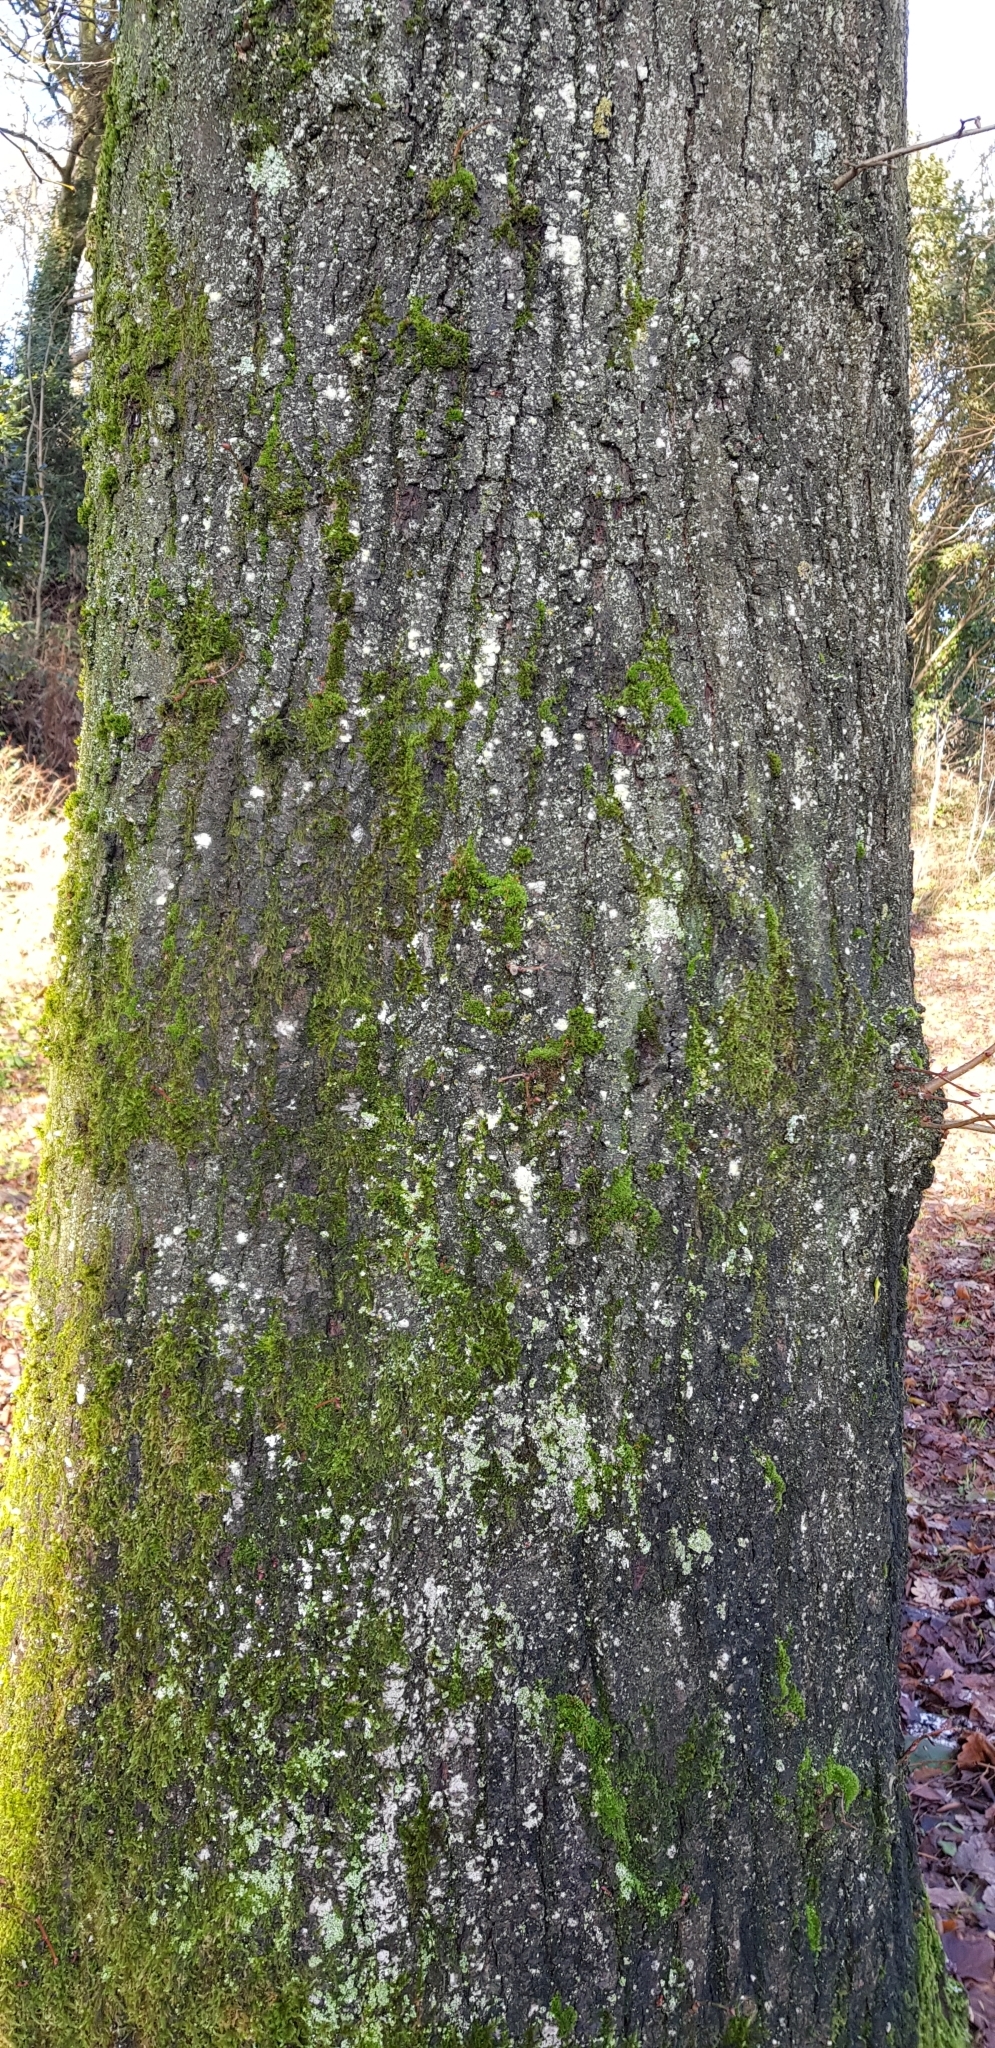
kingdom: Plantae
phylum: Bryophyta
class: Bryopsida
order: Bryales
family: Bryaceae
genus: Rosulabryum
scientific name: Rosulabryum capillare
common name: Capillary thread-moss
